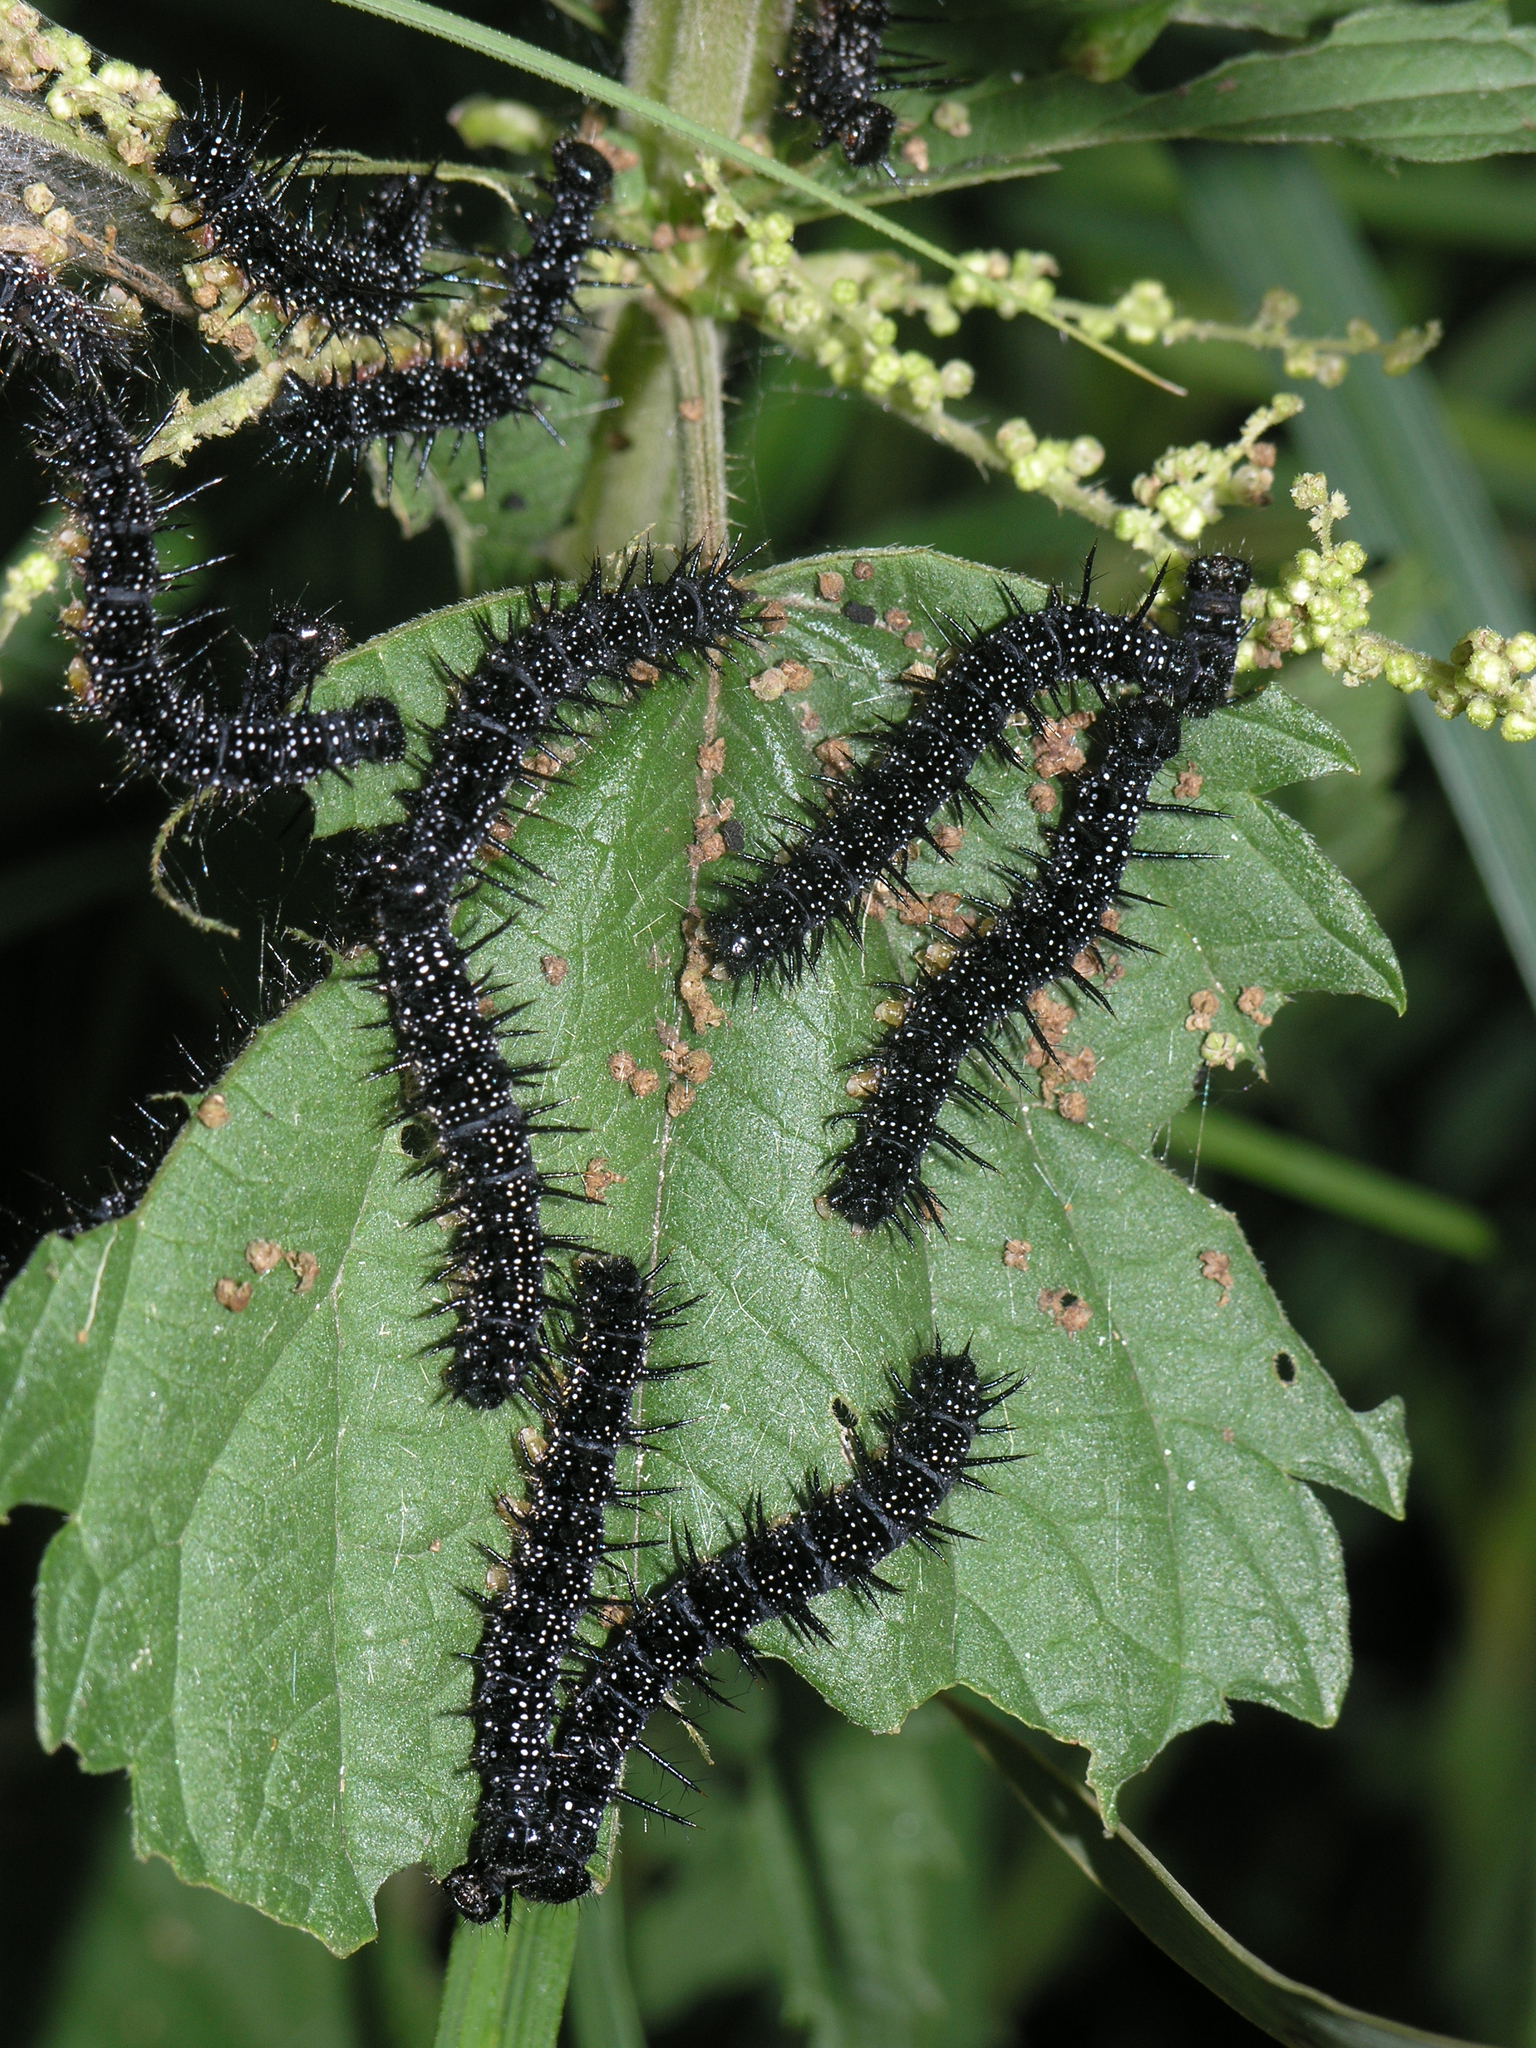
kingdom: Animalia
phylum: Arthropoda
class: Insecta
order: Lepidoptera
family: Nymphalidae
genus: Aglais
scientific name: Aglais io
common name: Peacock
